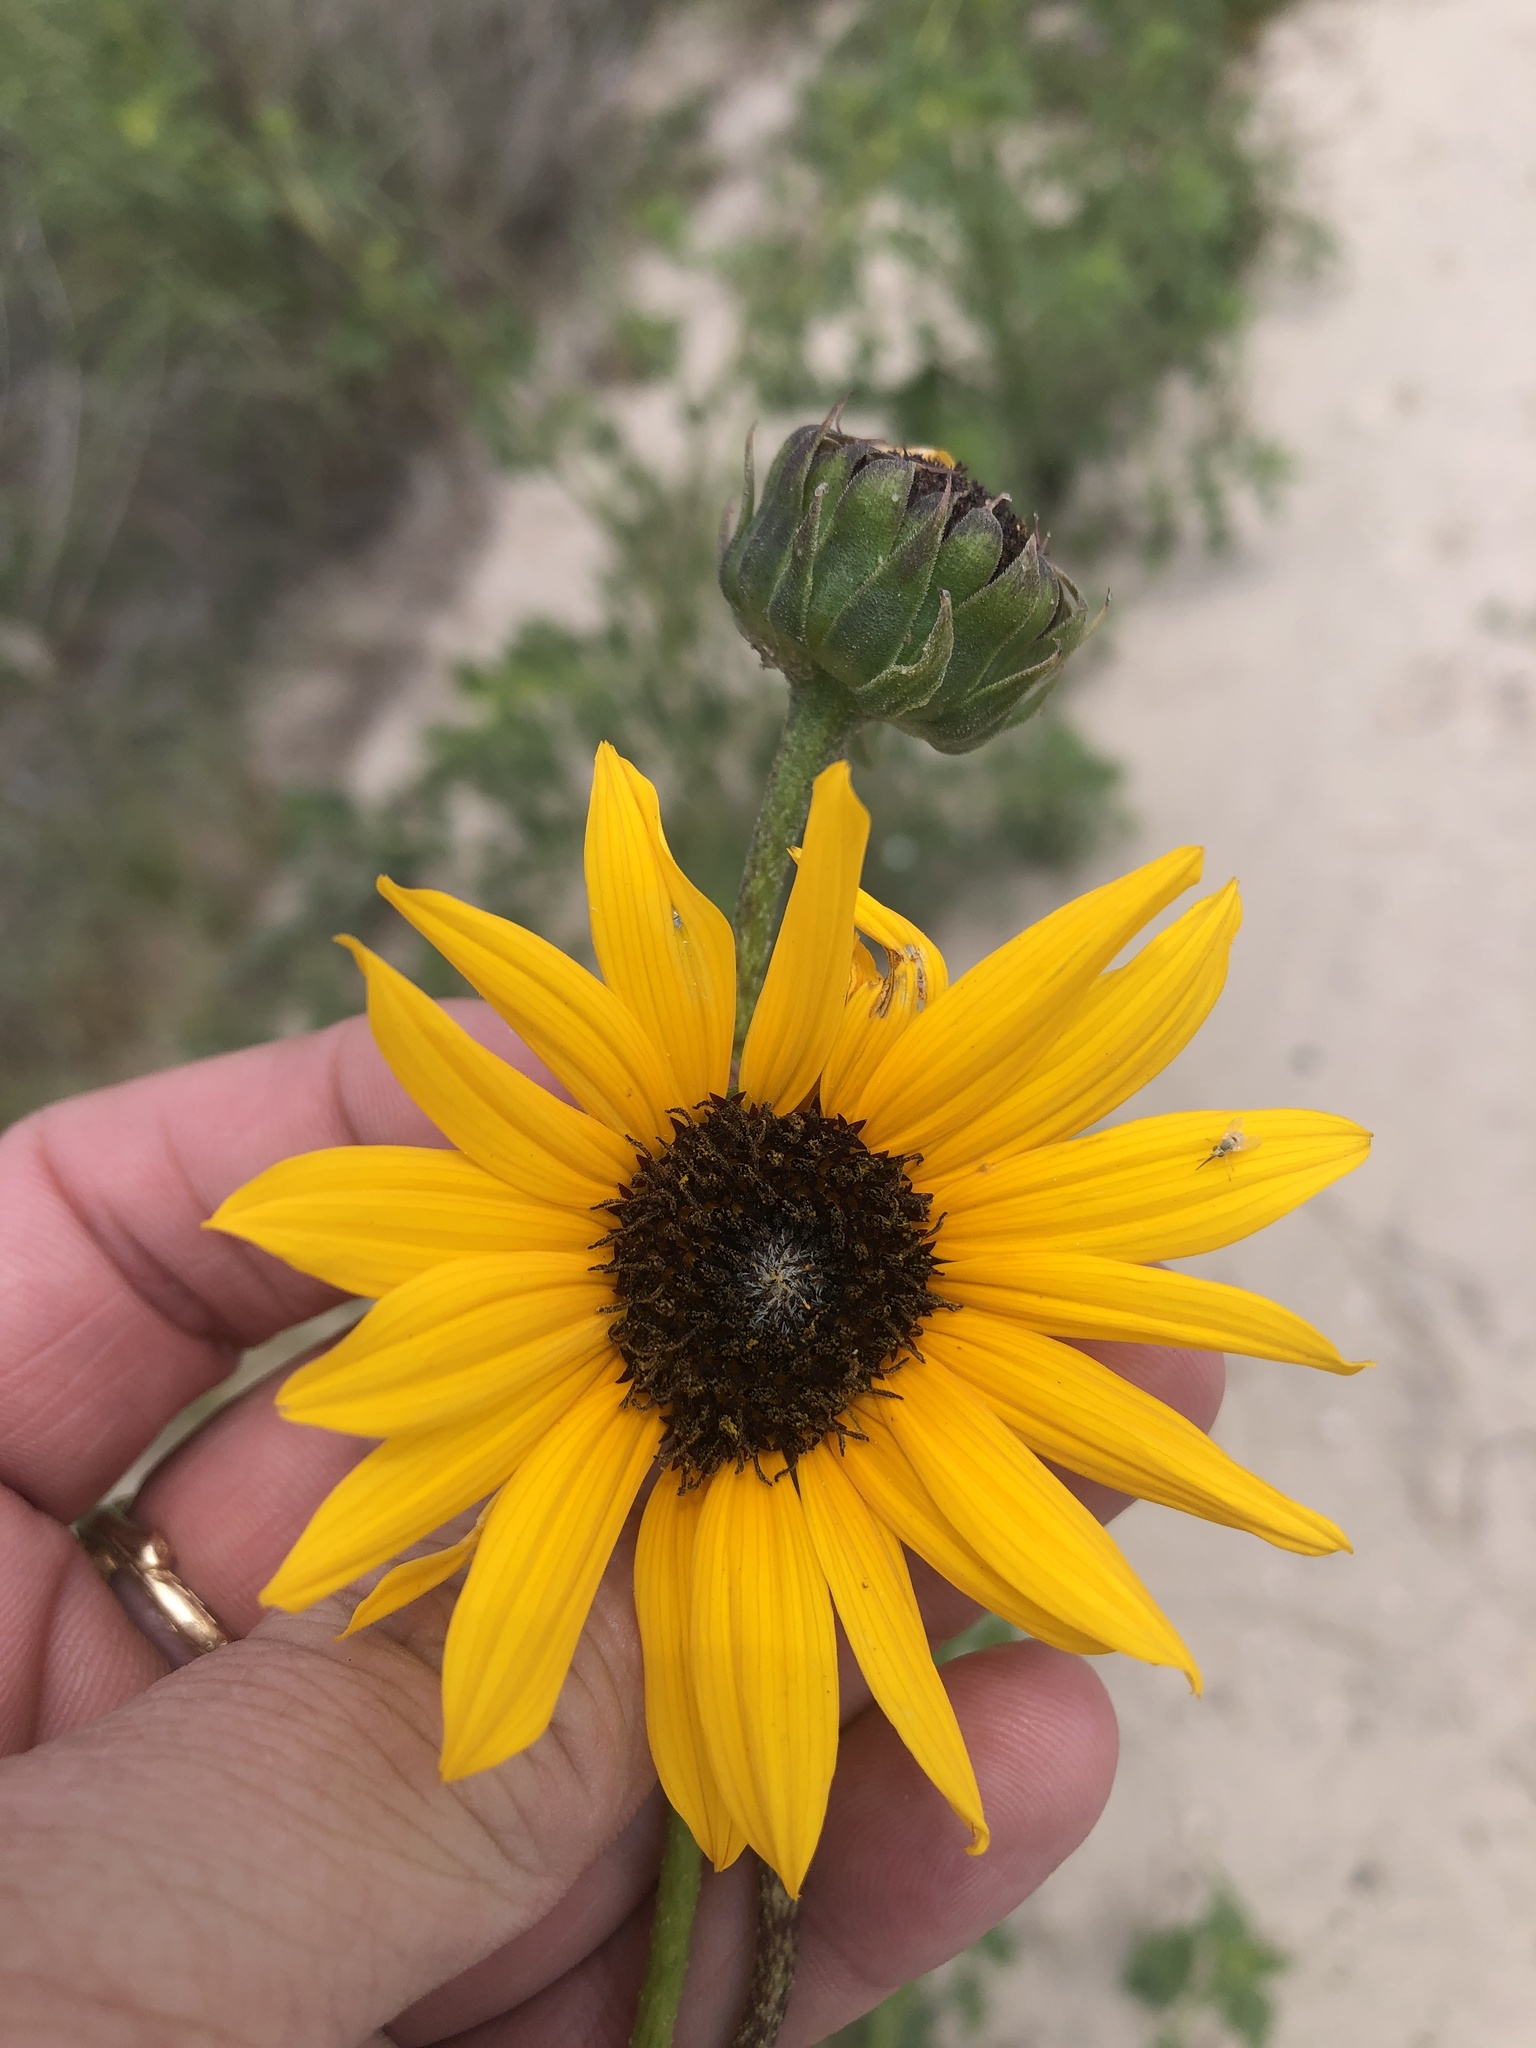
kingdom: Plantae
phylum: Tracheophyta
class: Magnoliopsida
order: Asterales
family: Asteraceae
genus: Helianthus
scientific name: Helianthus praecox
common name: Texas sunflower
